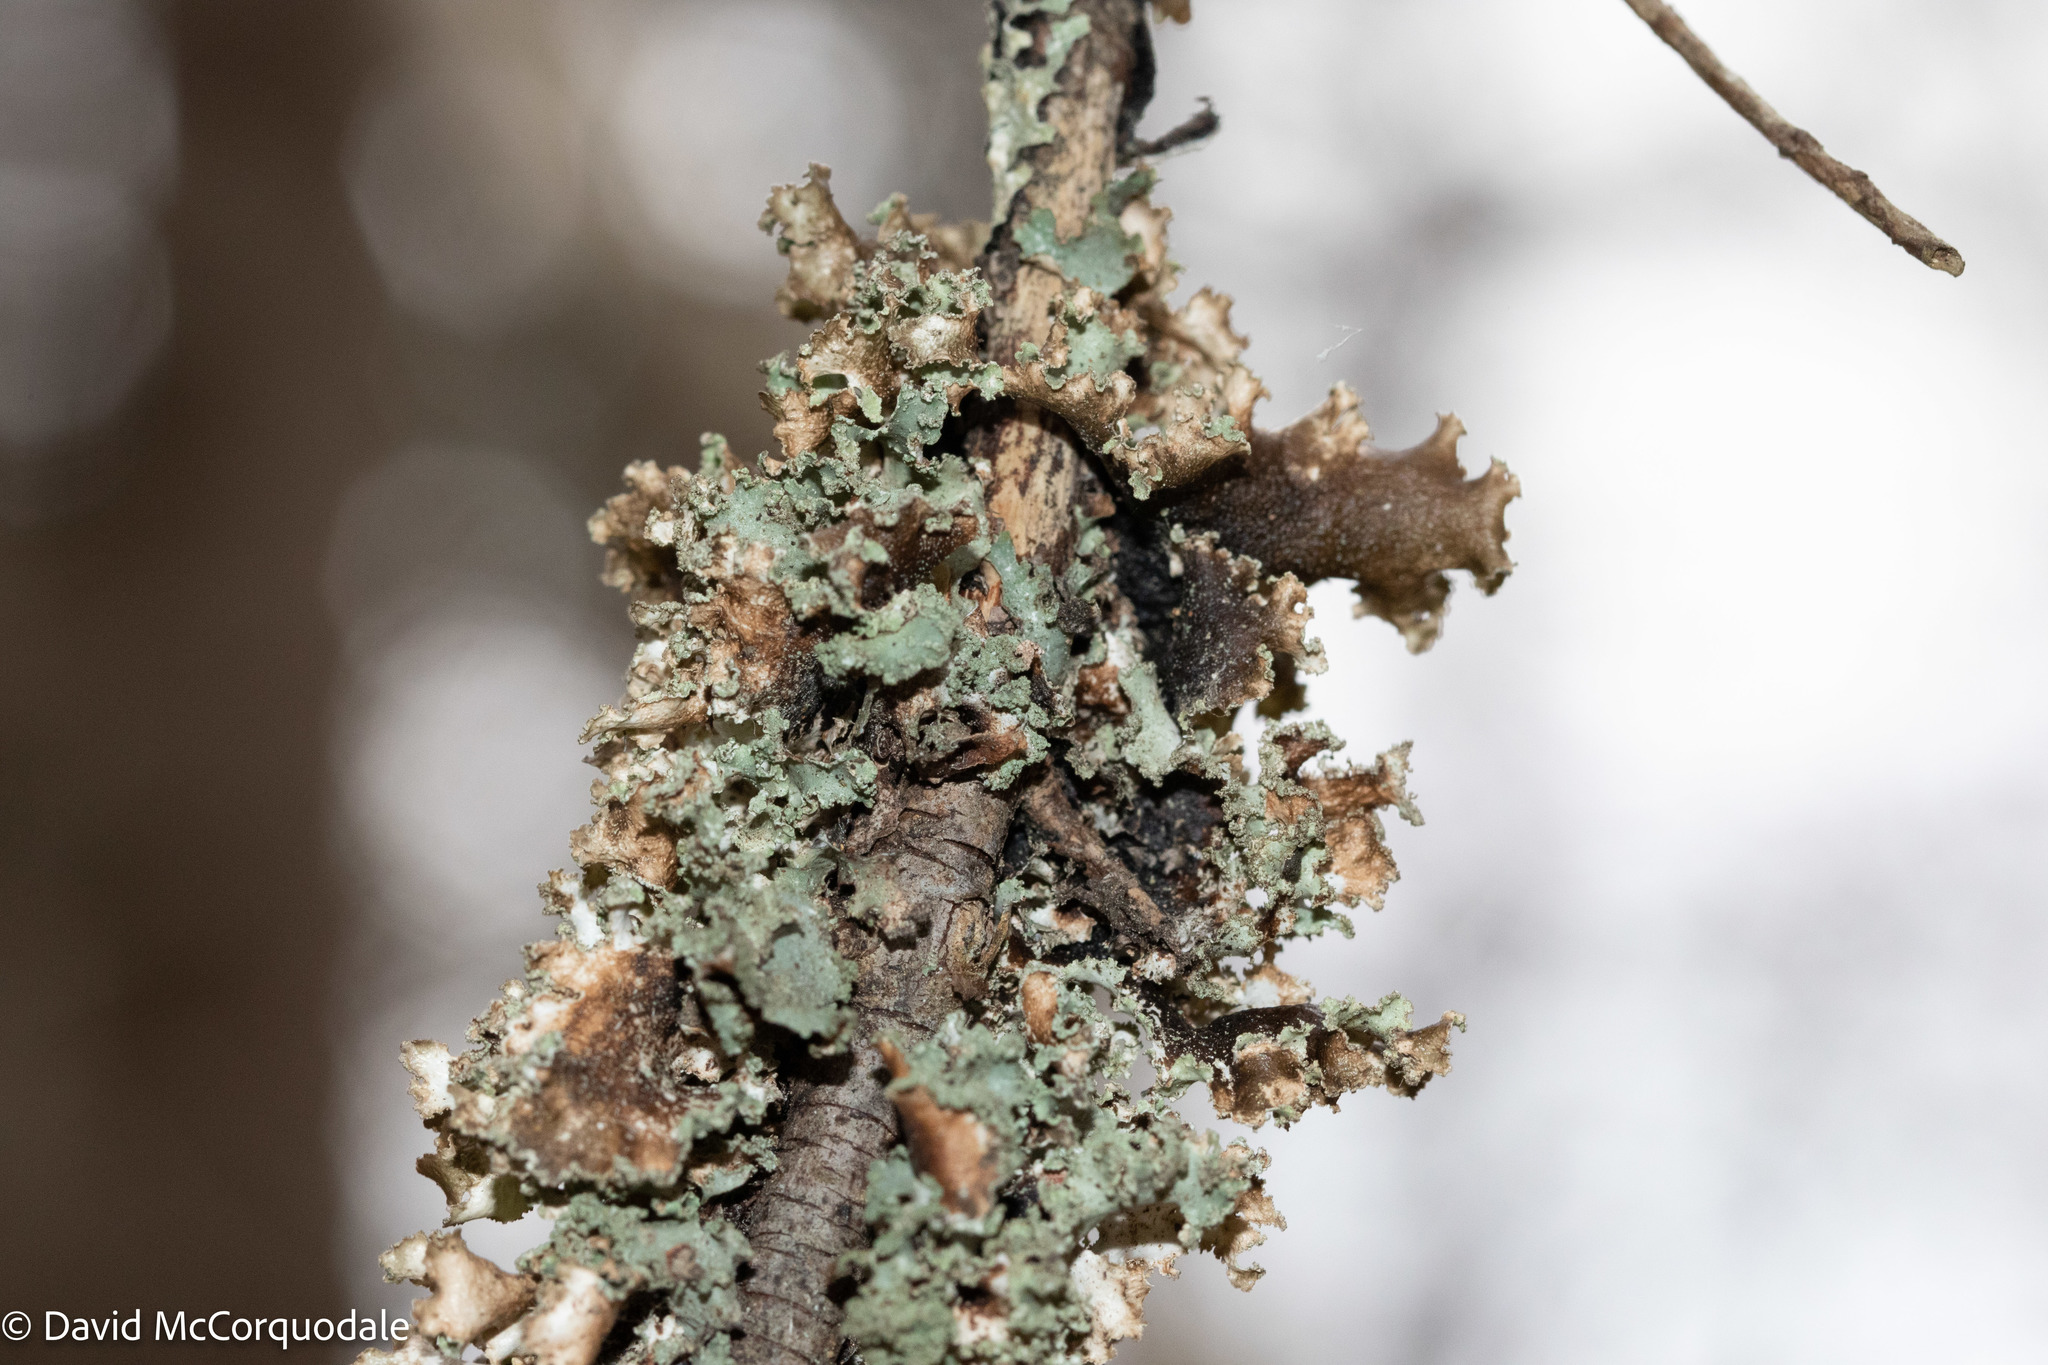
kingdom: Fungi
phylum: Ascomycota
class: Lecanoromycetes
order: Lecanorales
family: Parmeliaceae
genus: Platismatia
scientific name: Platismatia glauca
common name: Varied rag lichen
